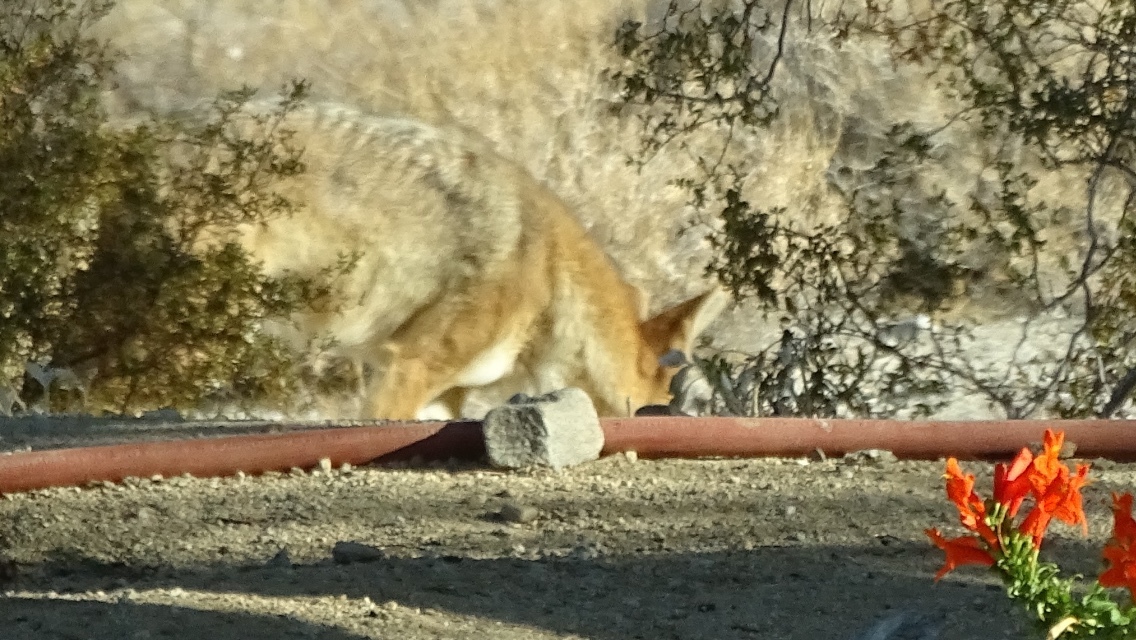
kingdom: Animalia
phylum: Chordata
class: Mammalia
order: Carnivora
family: Canidae
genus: Canis
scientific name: Canis latrans
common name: Coyote
